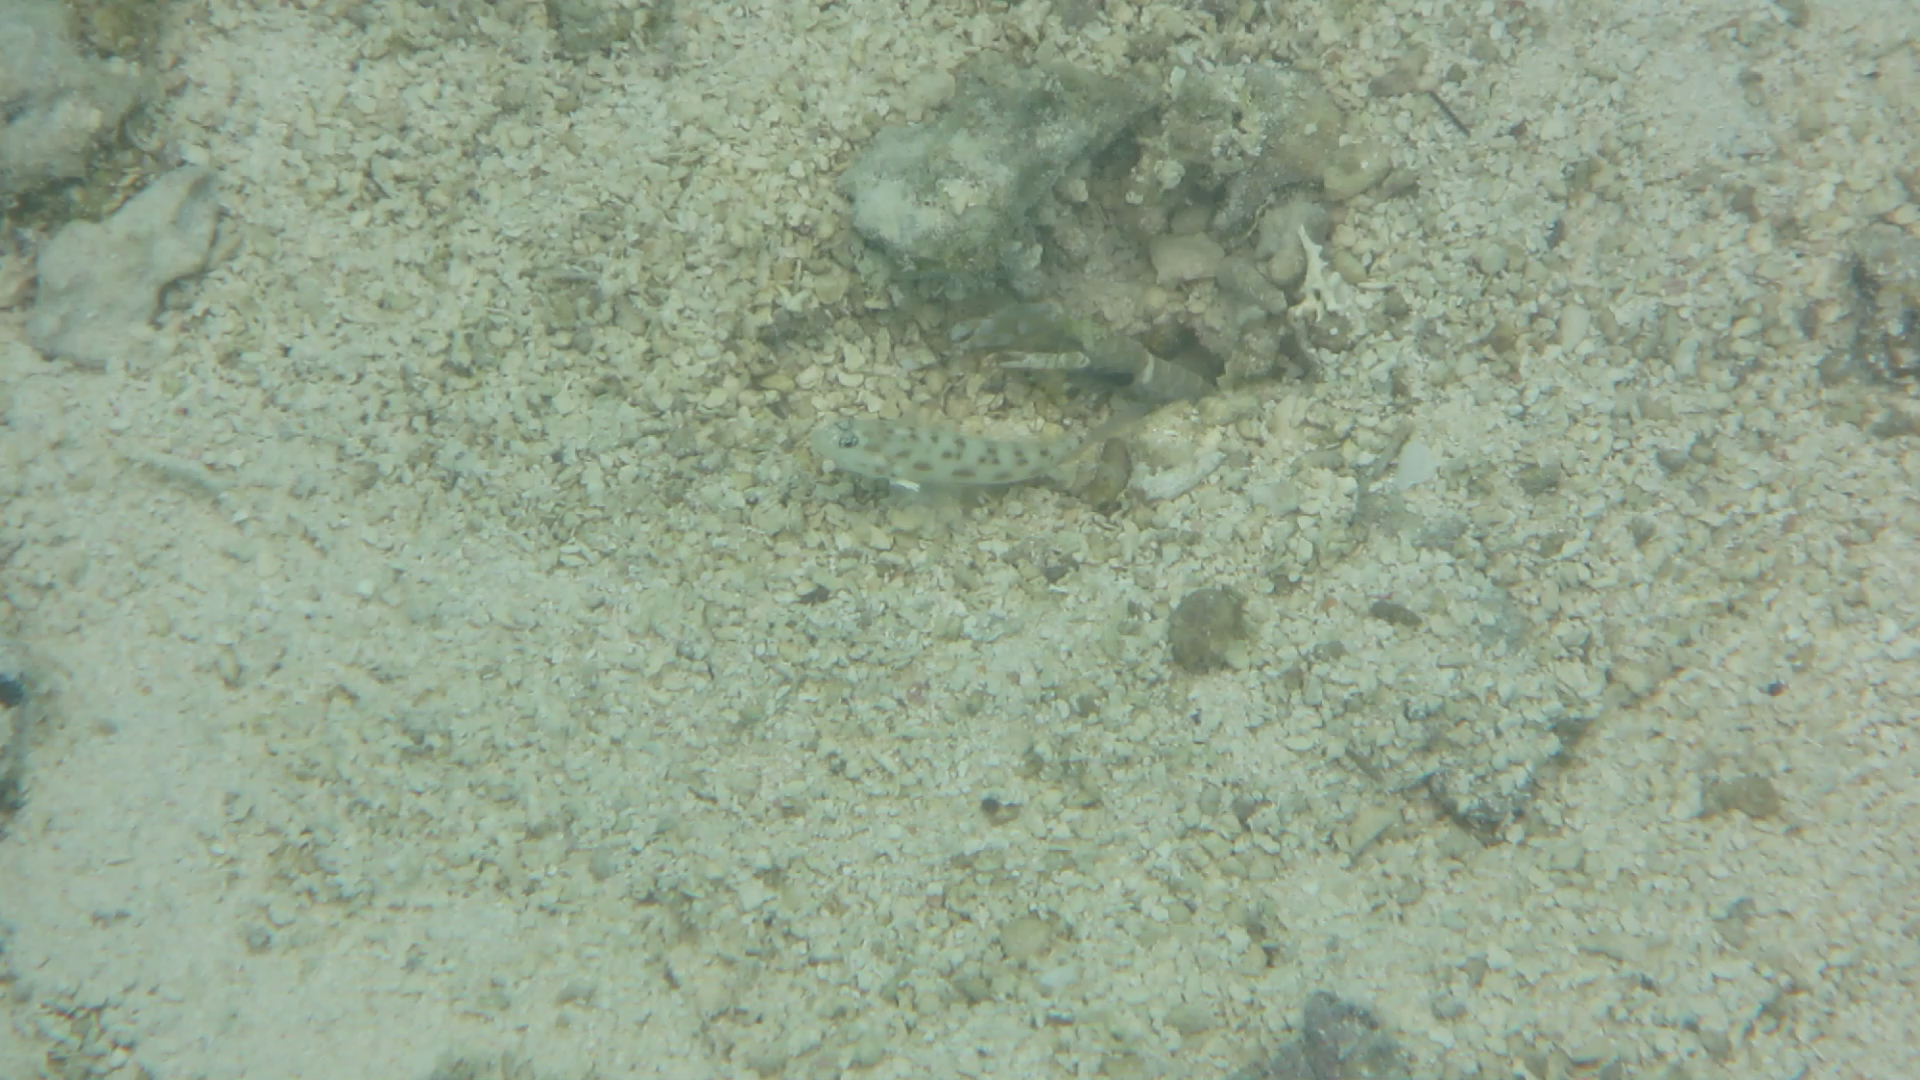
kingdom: Animalia
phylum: Chordata
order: Perciformes
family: Gobiidae
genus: Ctenogobiops
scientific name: Ctenogobiops feroculus
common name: Fierce shrimpgoby
